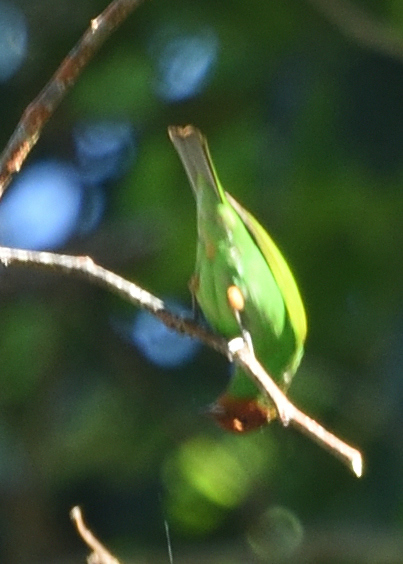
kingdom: Animalia
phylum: Chordata
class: Aves
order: Passeriformes
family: Thraupidae
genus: Tangara
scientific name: Tangara gyrola
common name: Bay-headed tanager
